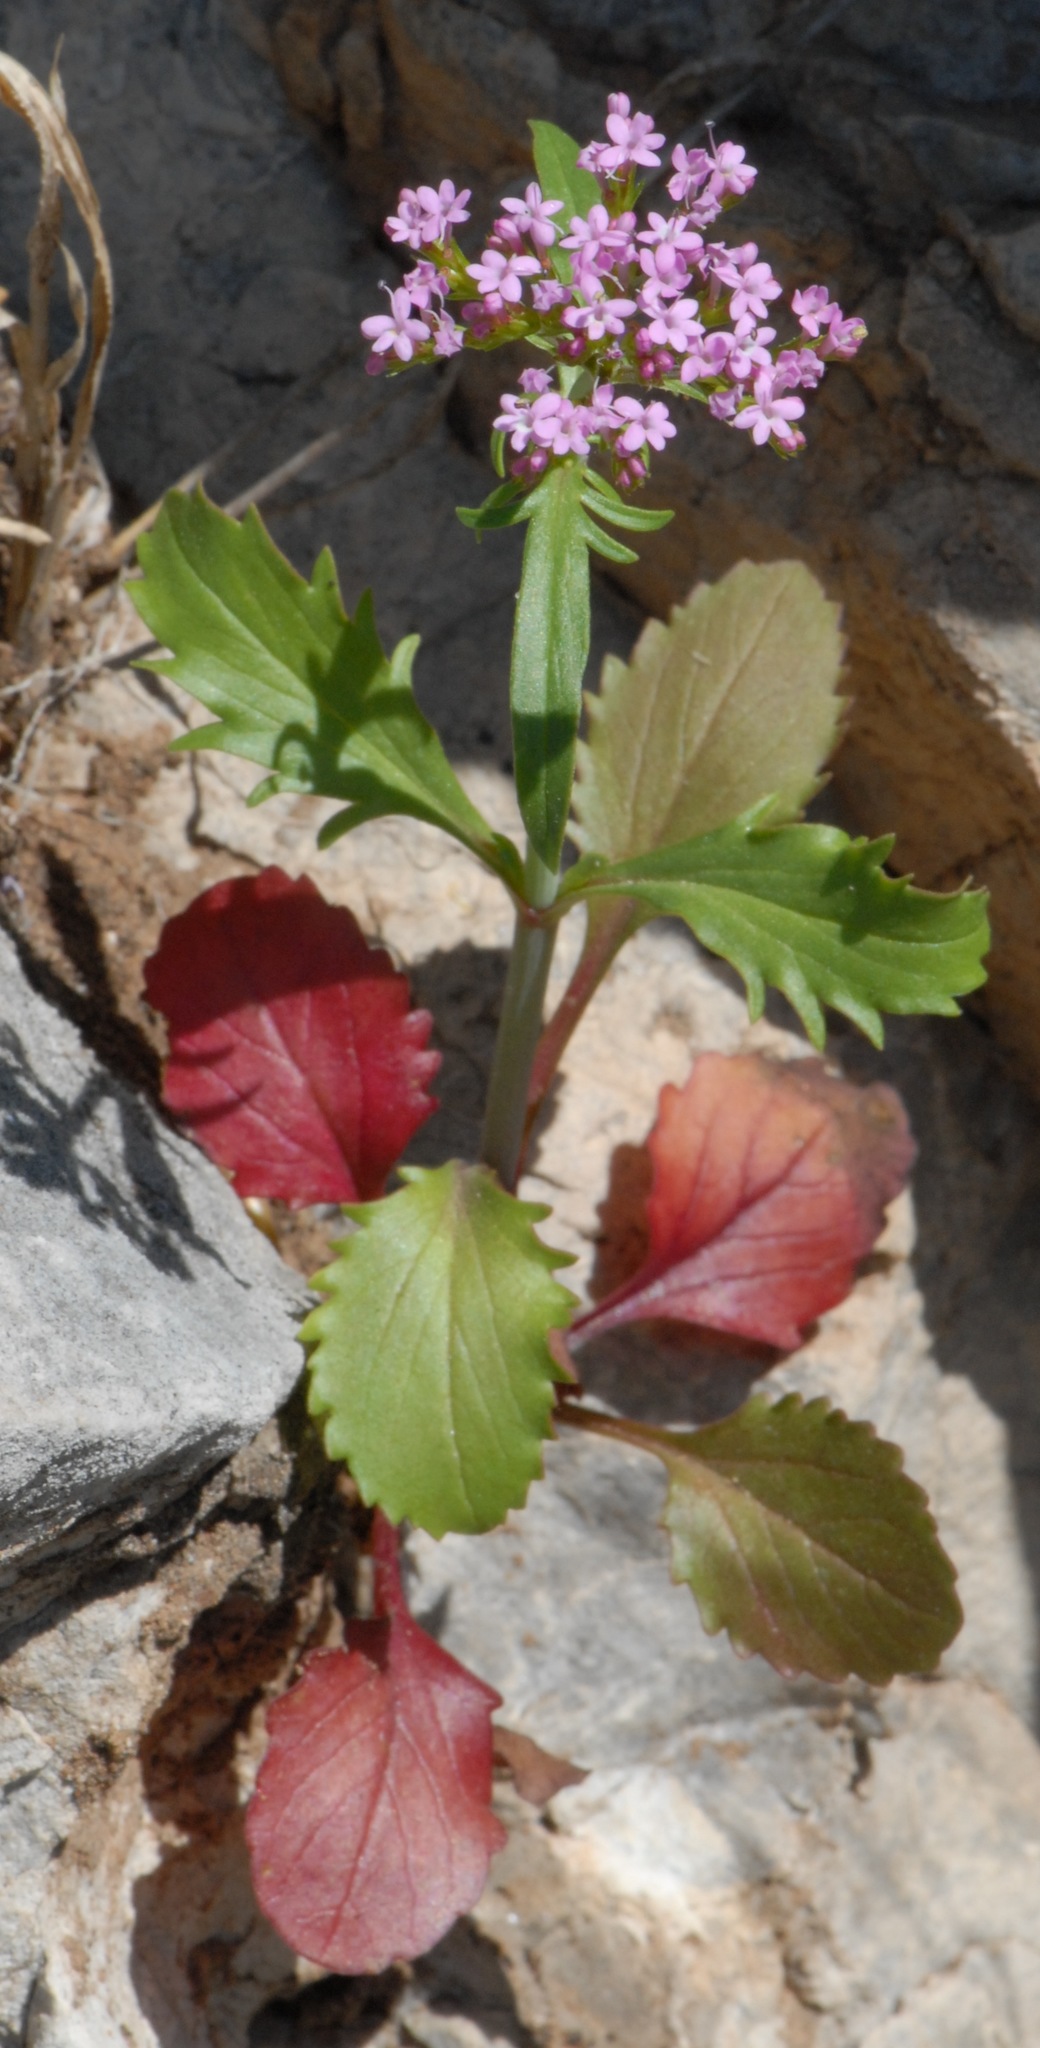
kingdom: Plantae
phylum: Tracheophyta
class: Magnoliopsida
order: Dipsacales
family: Caprifoliaceae
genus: Centranthus
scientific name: Centranthus calcitrapae
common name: Annual valerian
